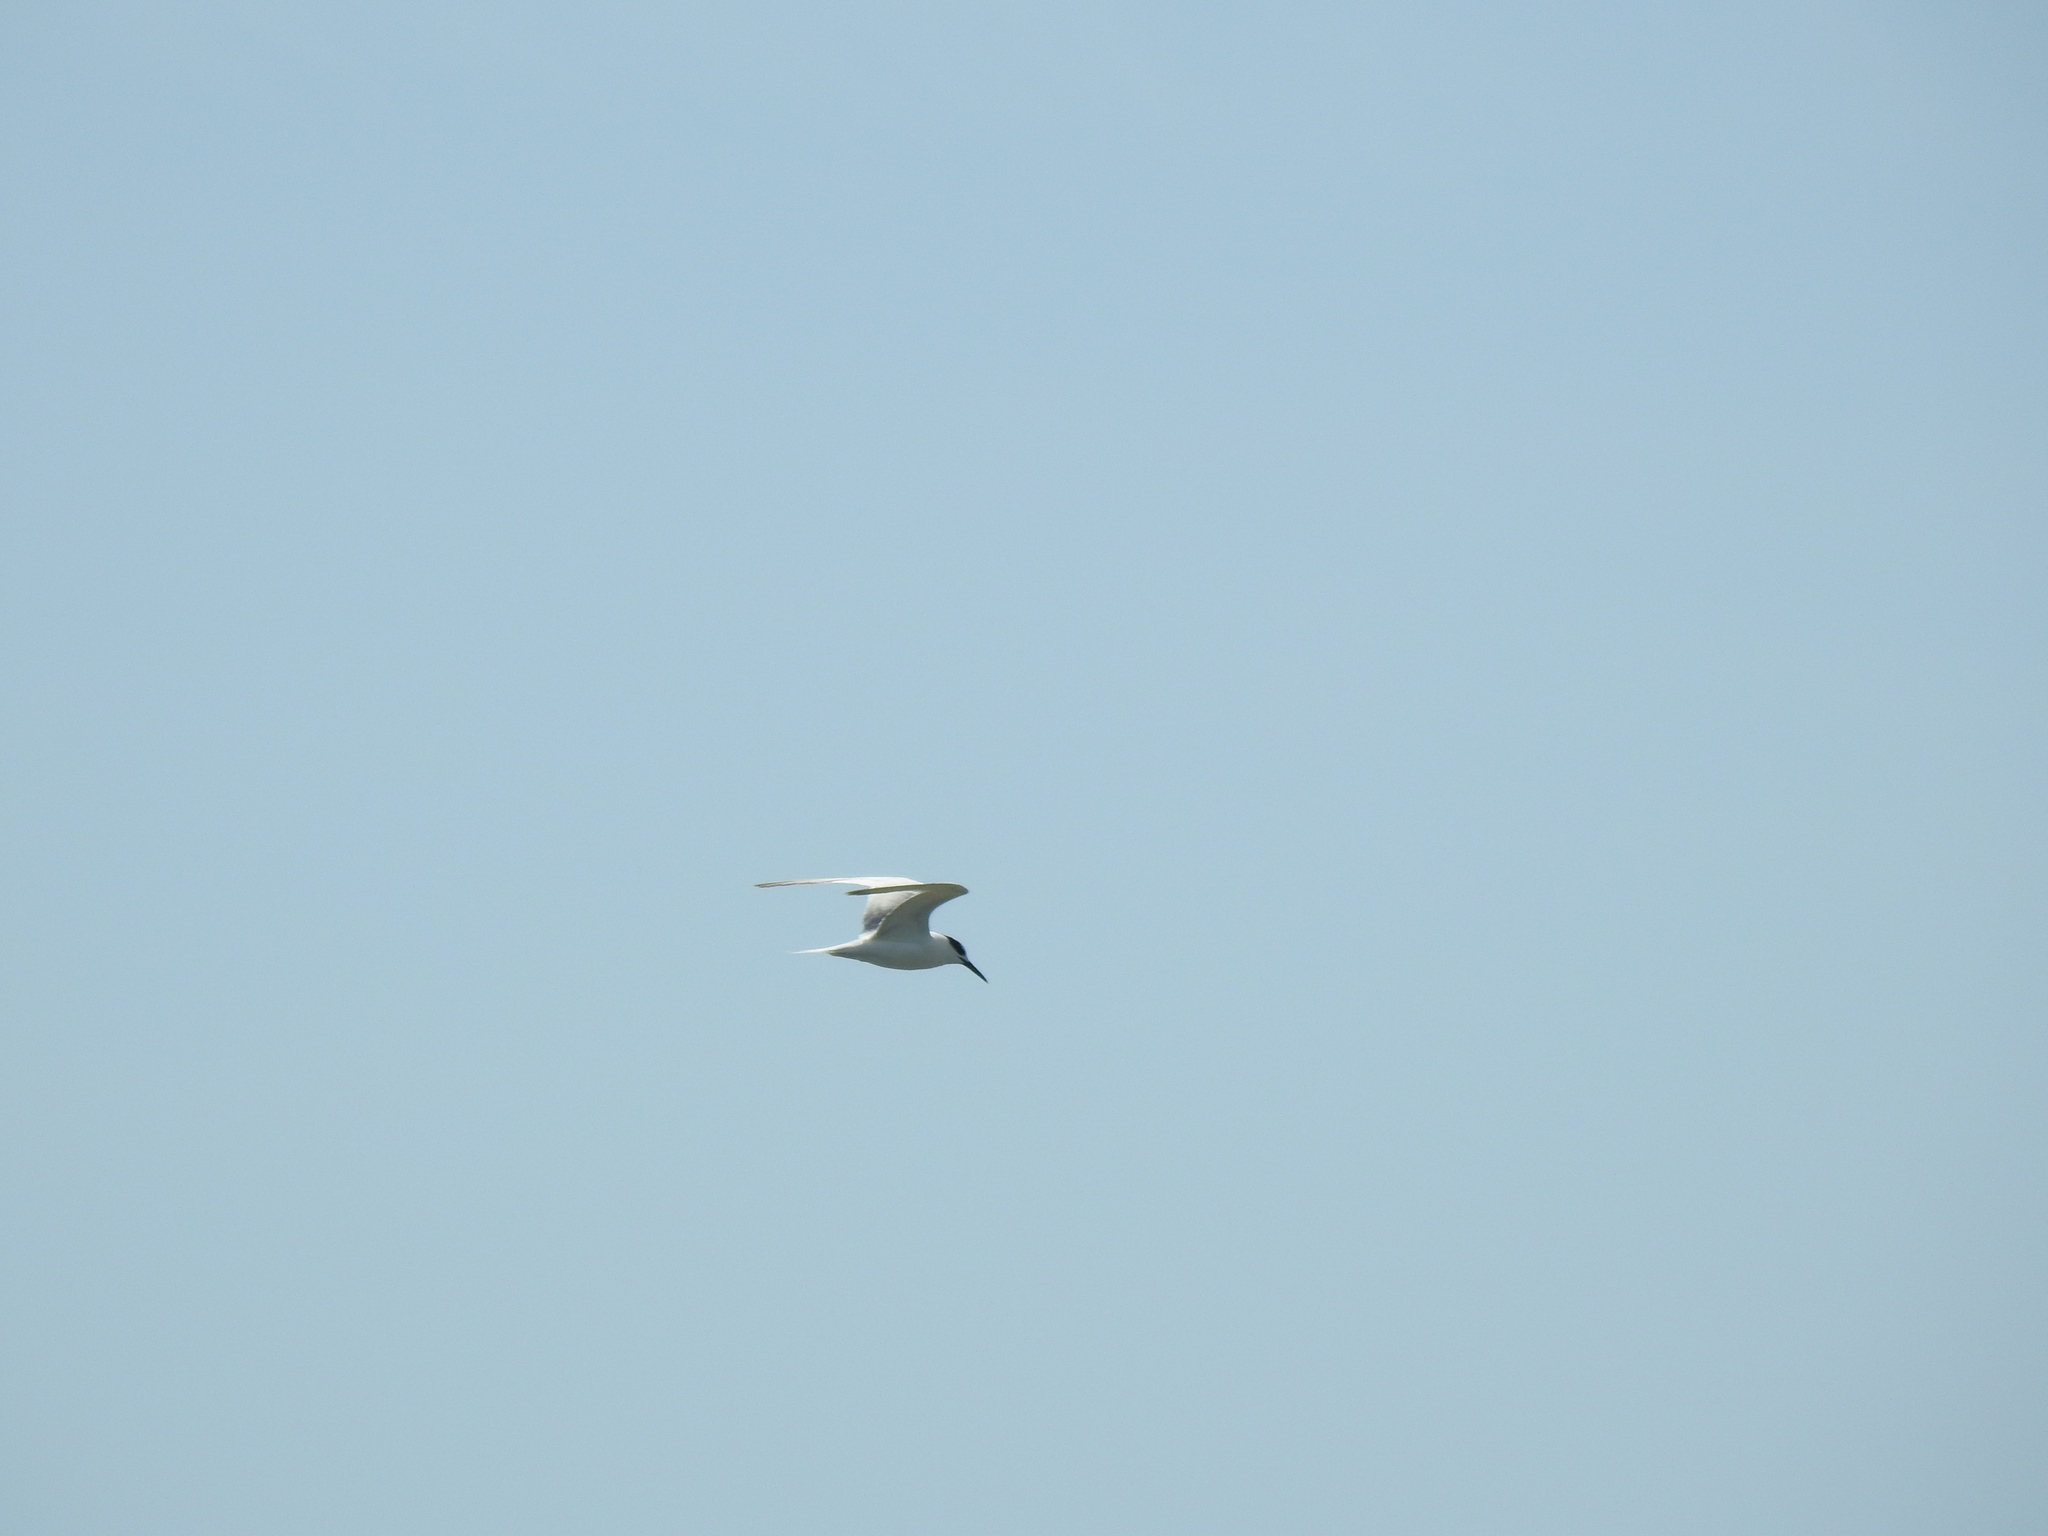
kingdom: Animalia
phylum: Chordata
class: Aves
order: Charadriiformes
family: Laridae
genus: Thalasseus
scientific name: Thalasseus sandvicensis
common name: Sandwich tern
